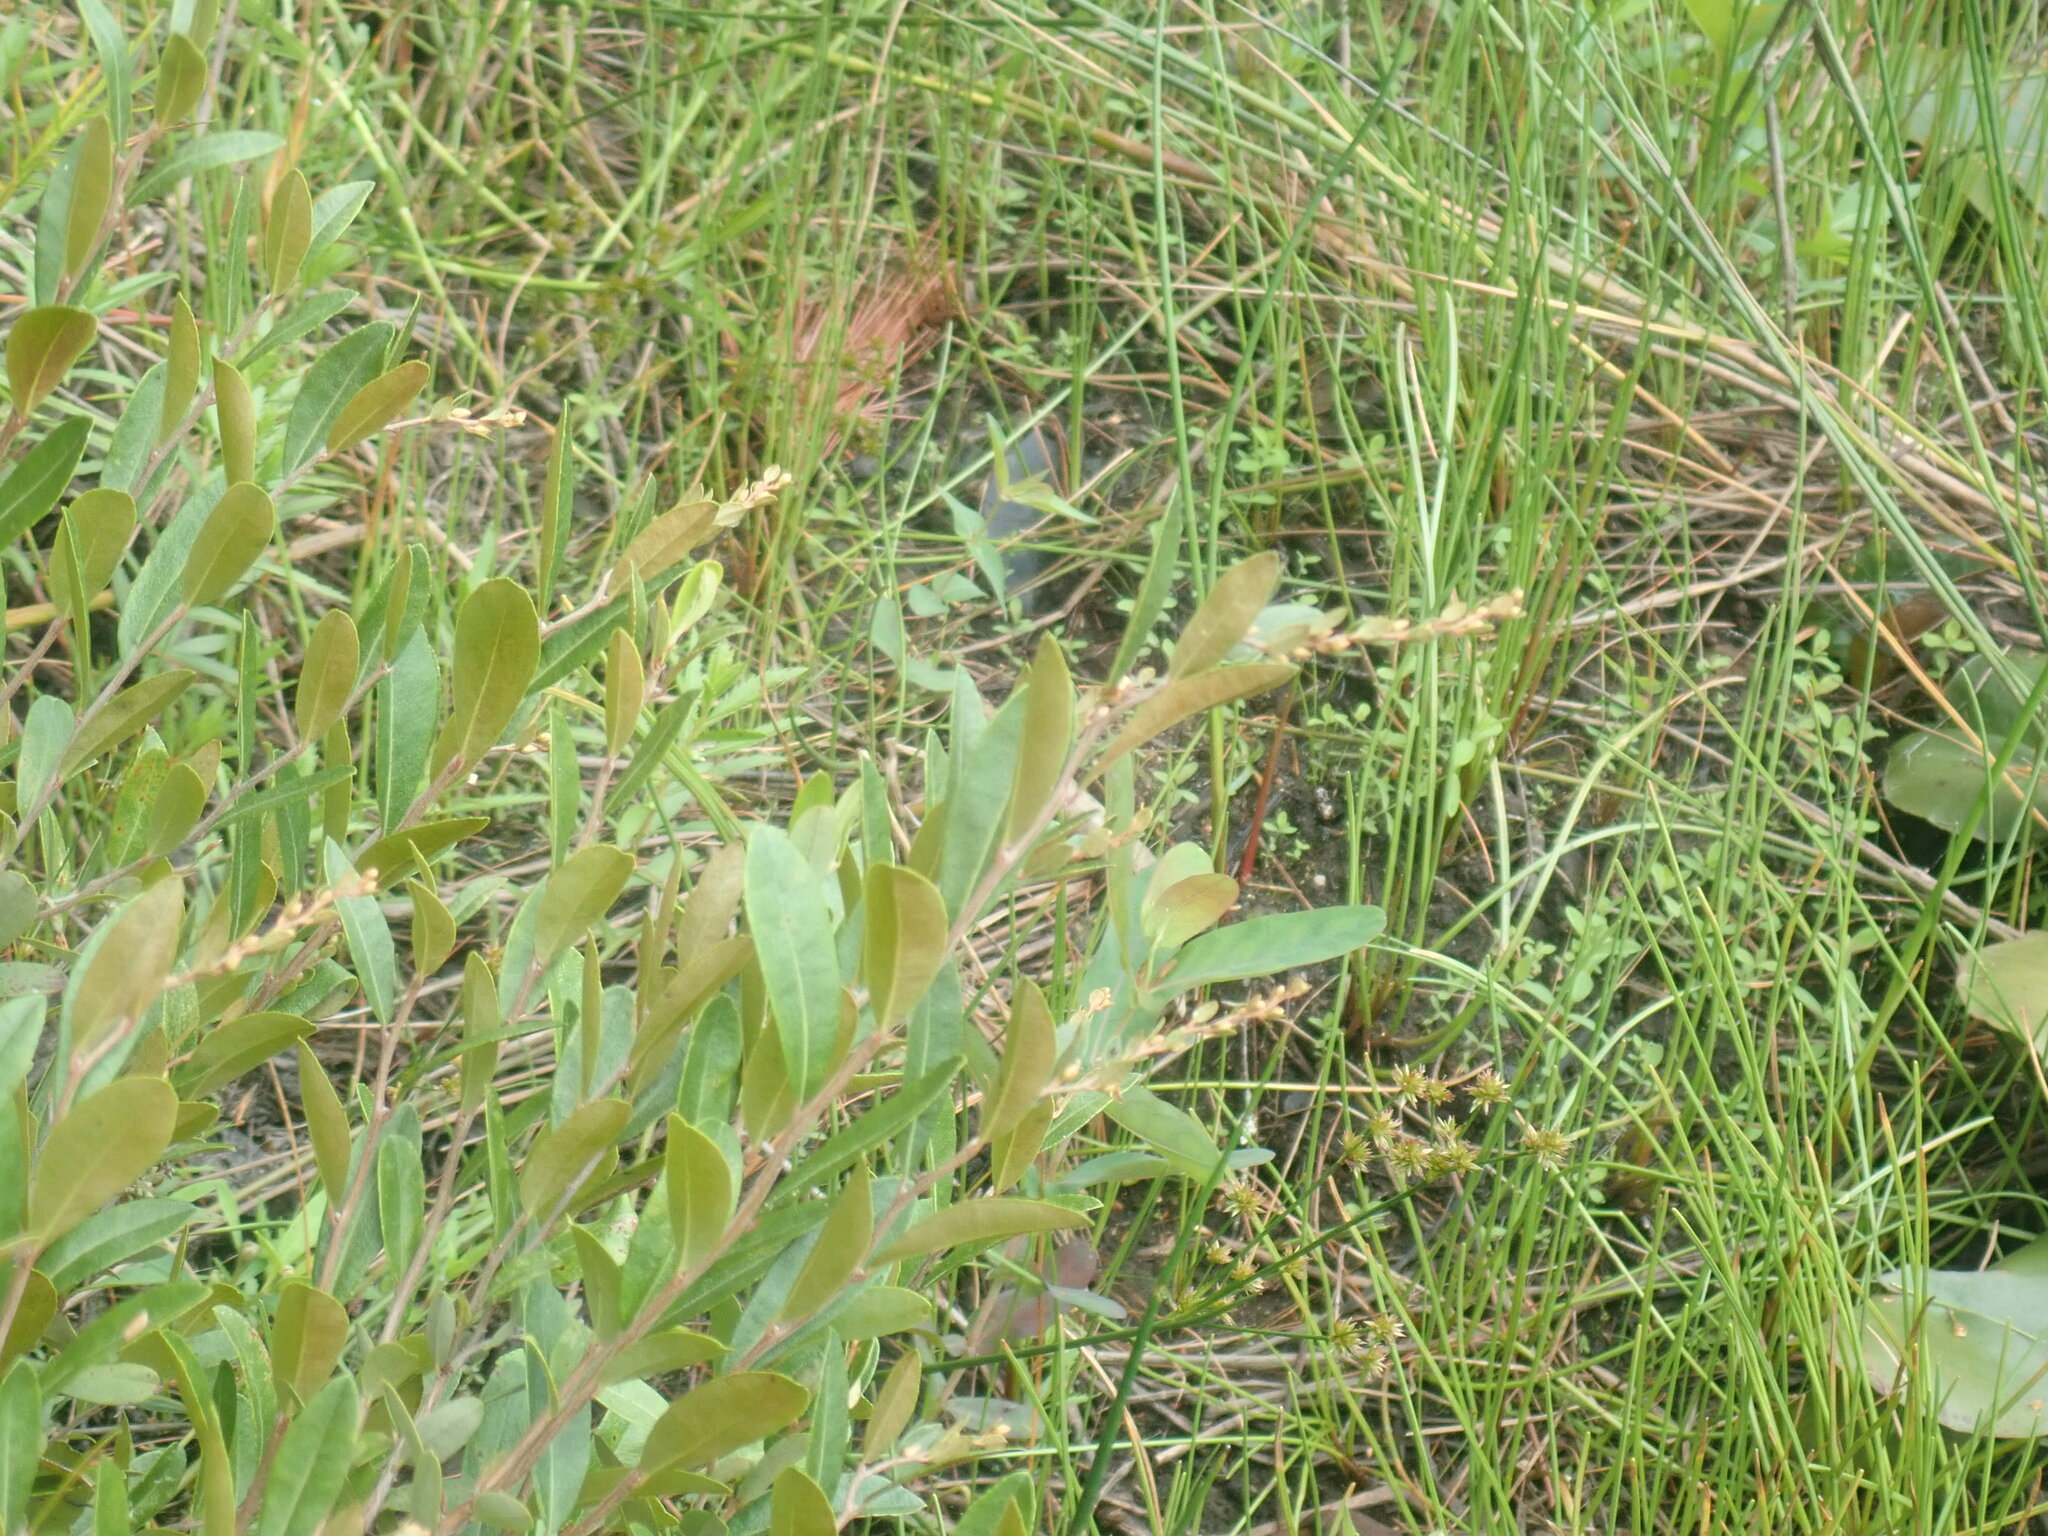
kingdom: Plantae
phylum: Tracheophyta
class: Magnoliopsida
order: Ericales
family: Ericaceae
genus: Chamaedaphne
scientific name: Chamaedaphne calyculata
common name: Leatherleaf
